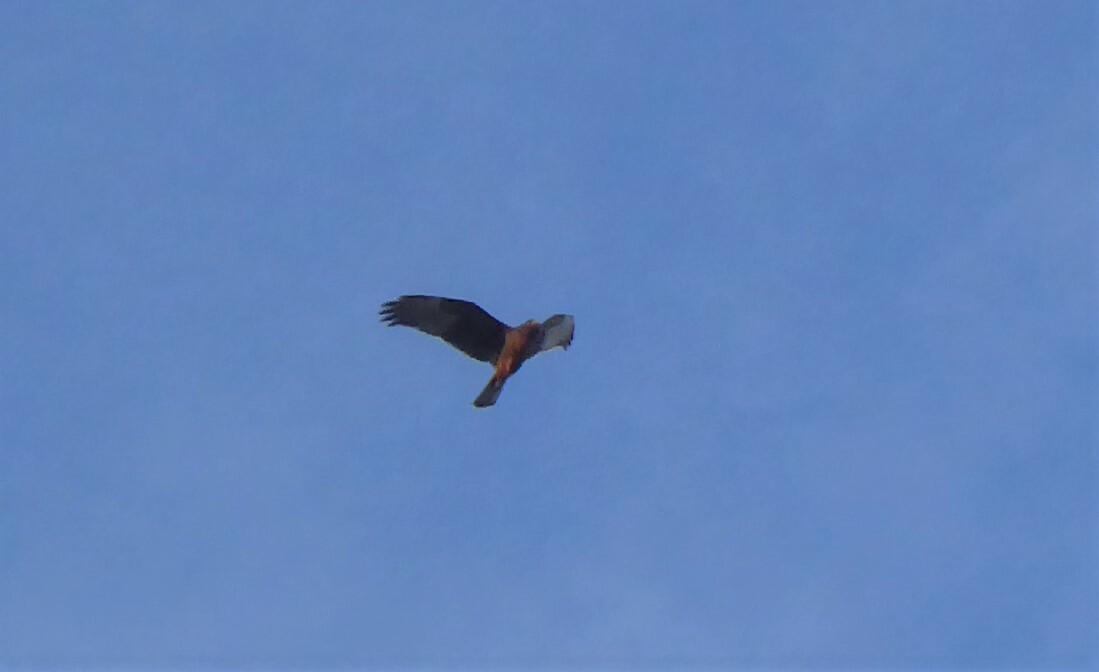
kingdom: Animalia
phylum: Chordata
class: Aves
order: Accipitriformes
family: Accipitridae
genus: Circus
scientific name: Circus approximans
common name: Swamp harrier
